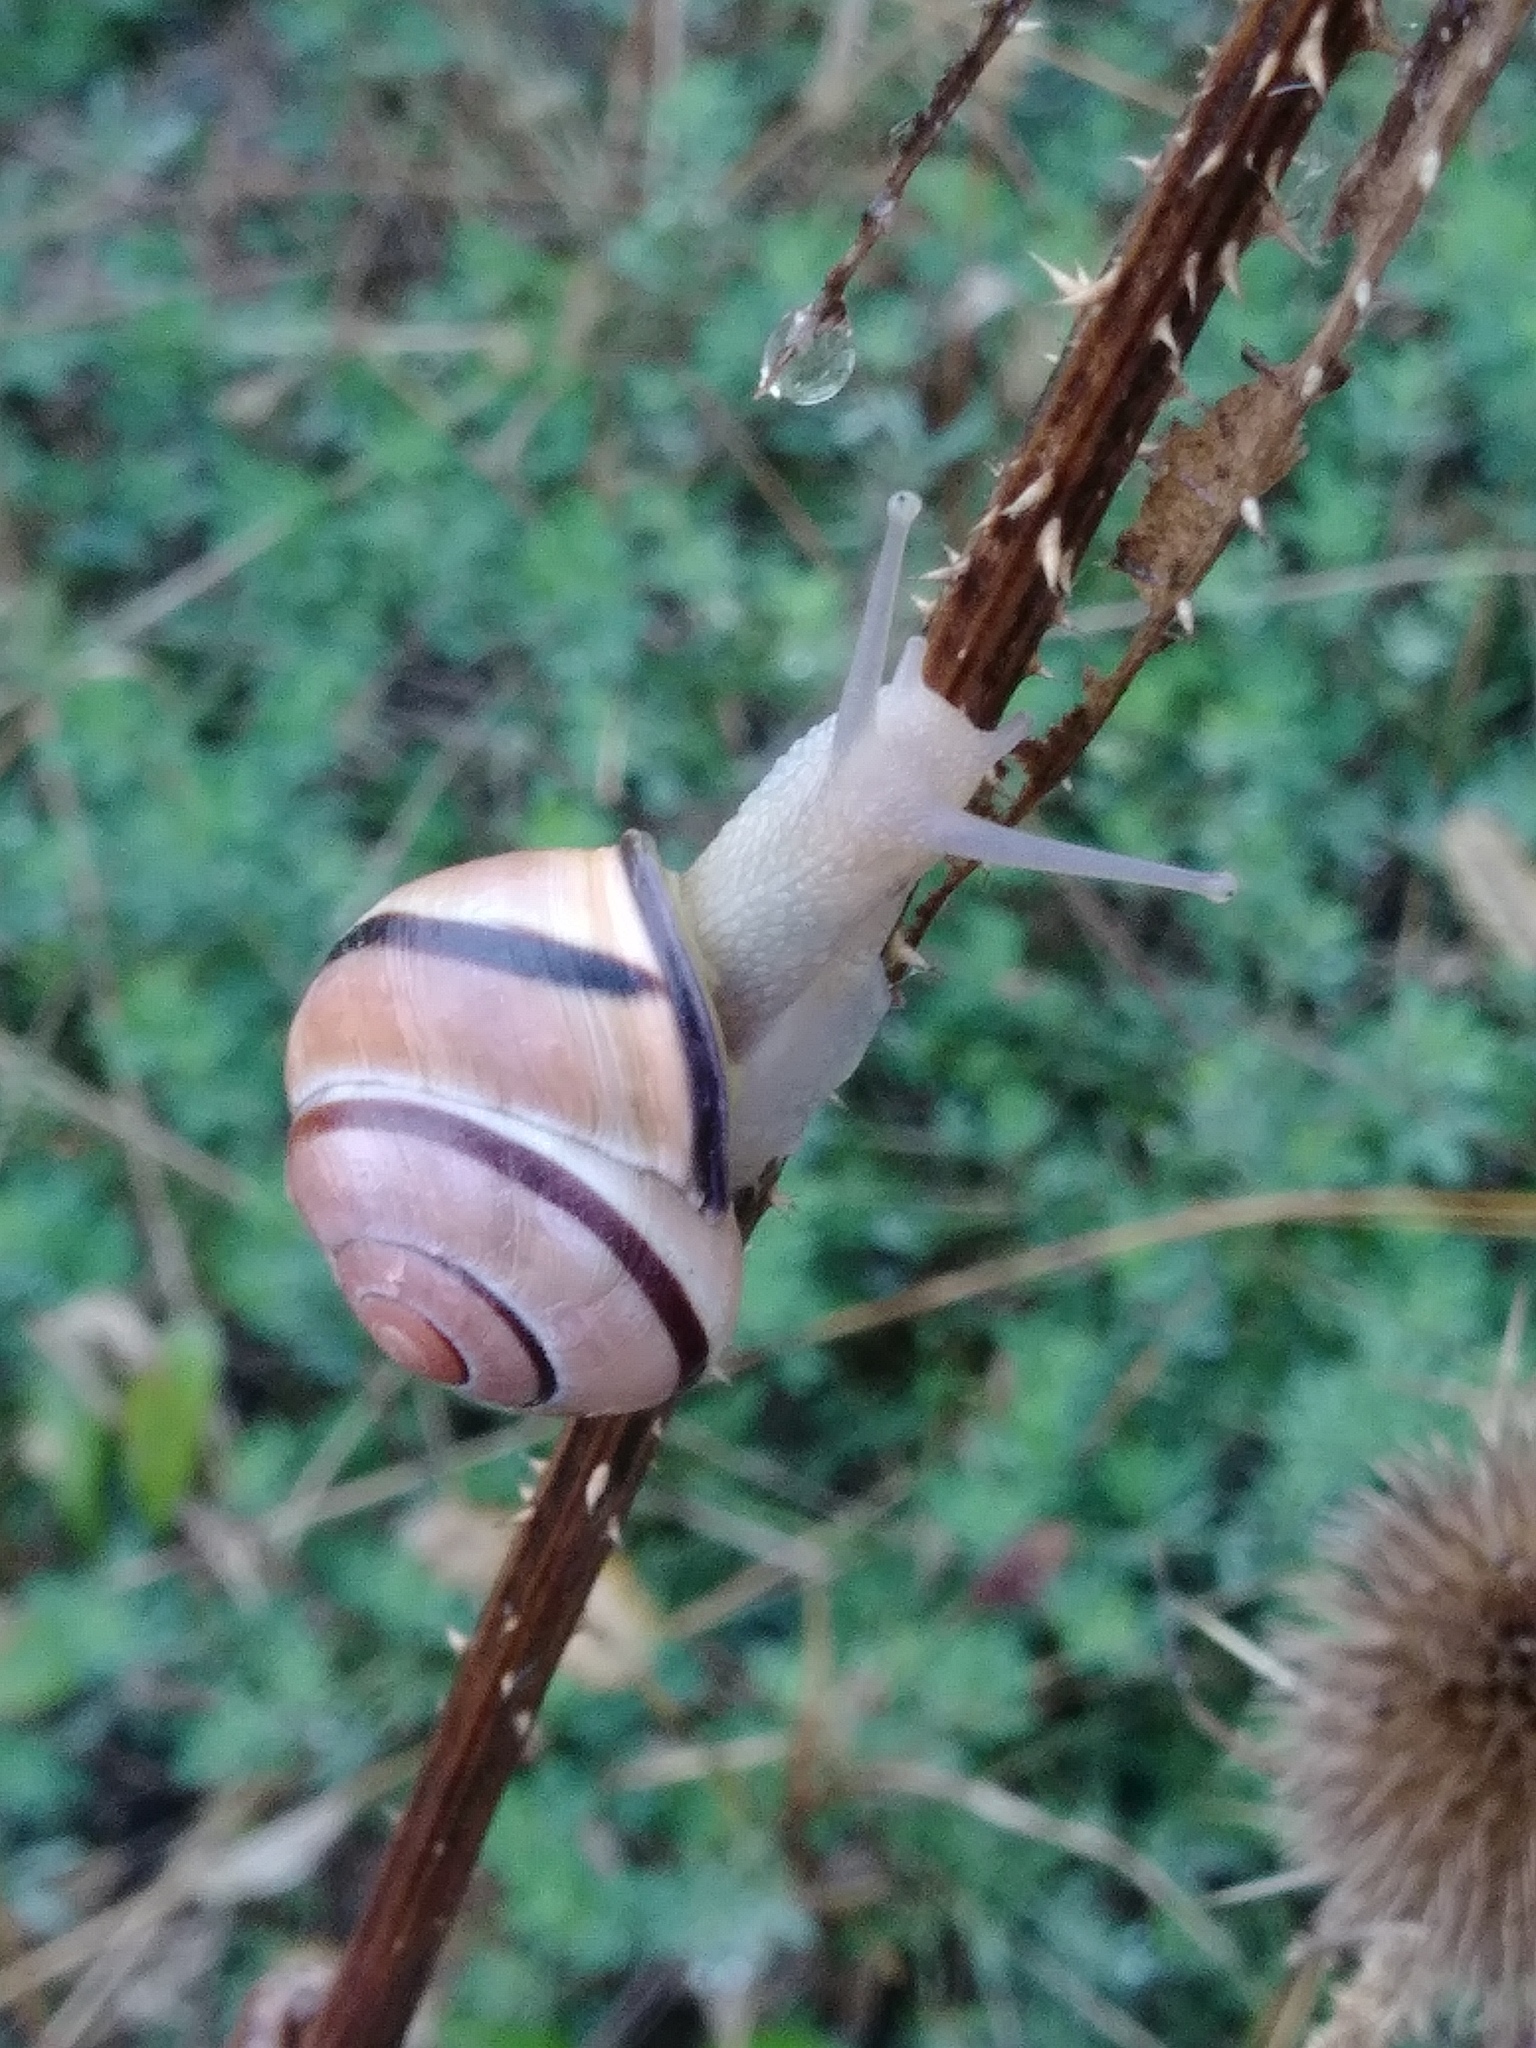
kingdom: Animalia
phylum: Mollusca
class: Gastropoda
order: Stylommatophora
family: Helicidae
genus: Cepaea
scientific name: Cepaea nemoralis
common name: Grovesnail
